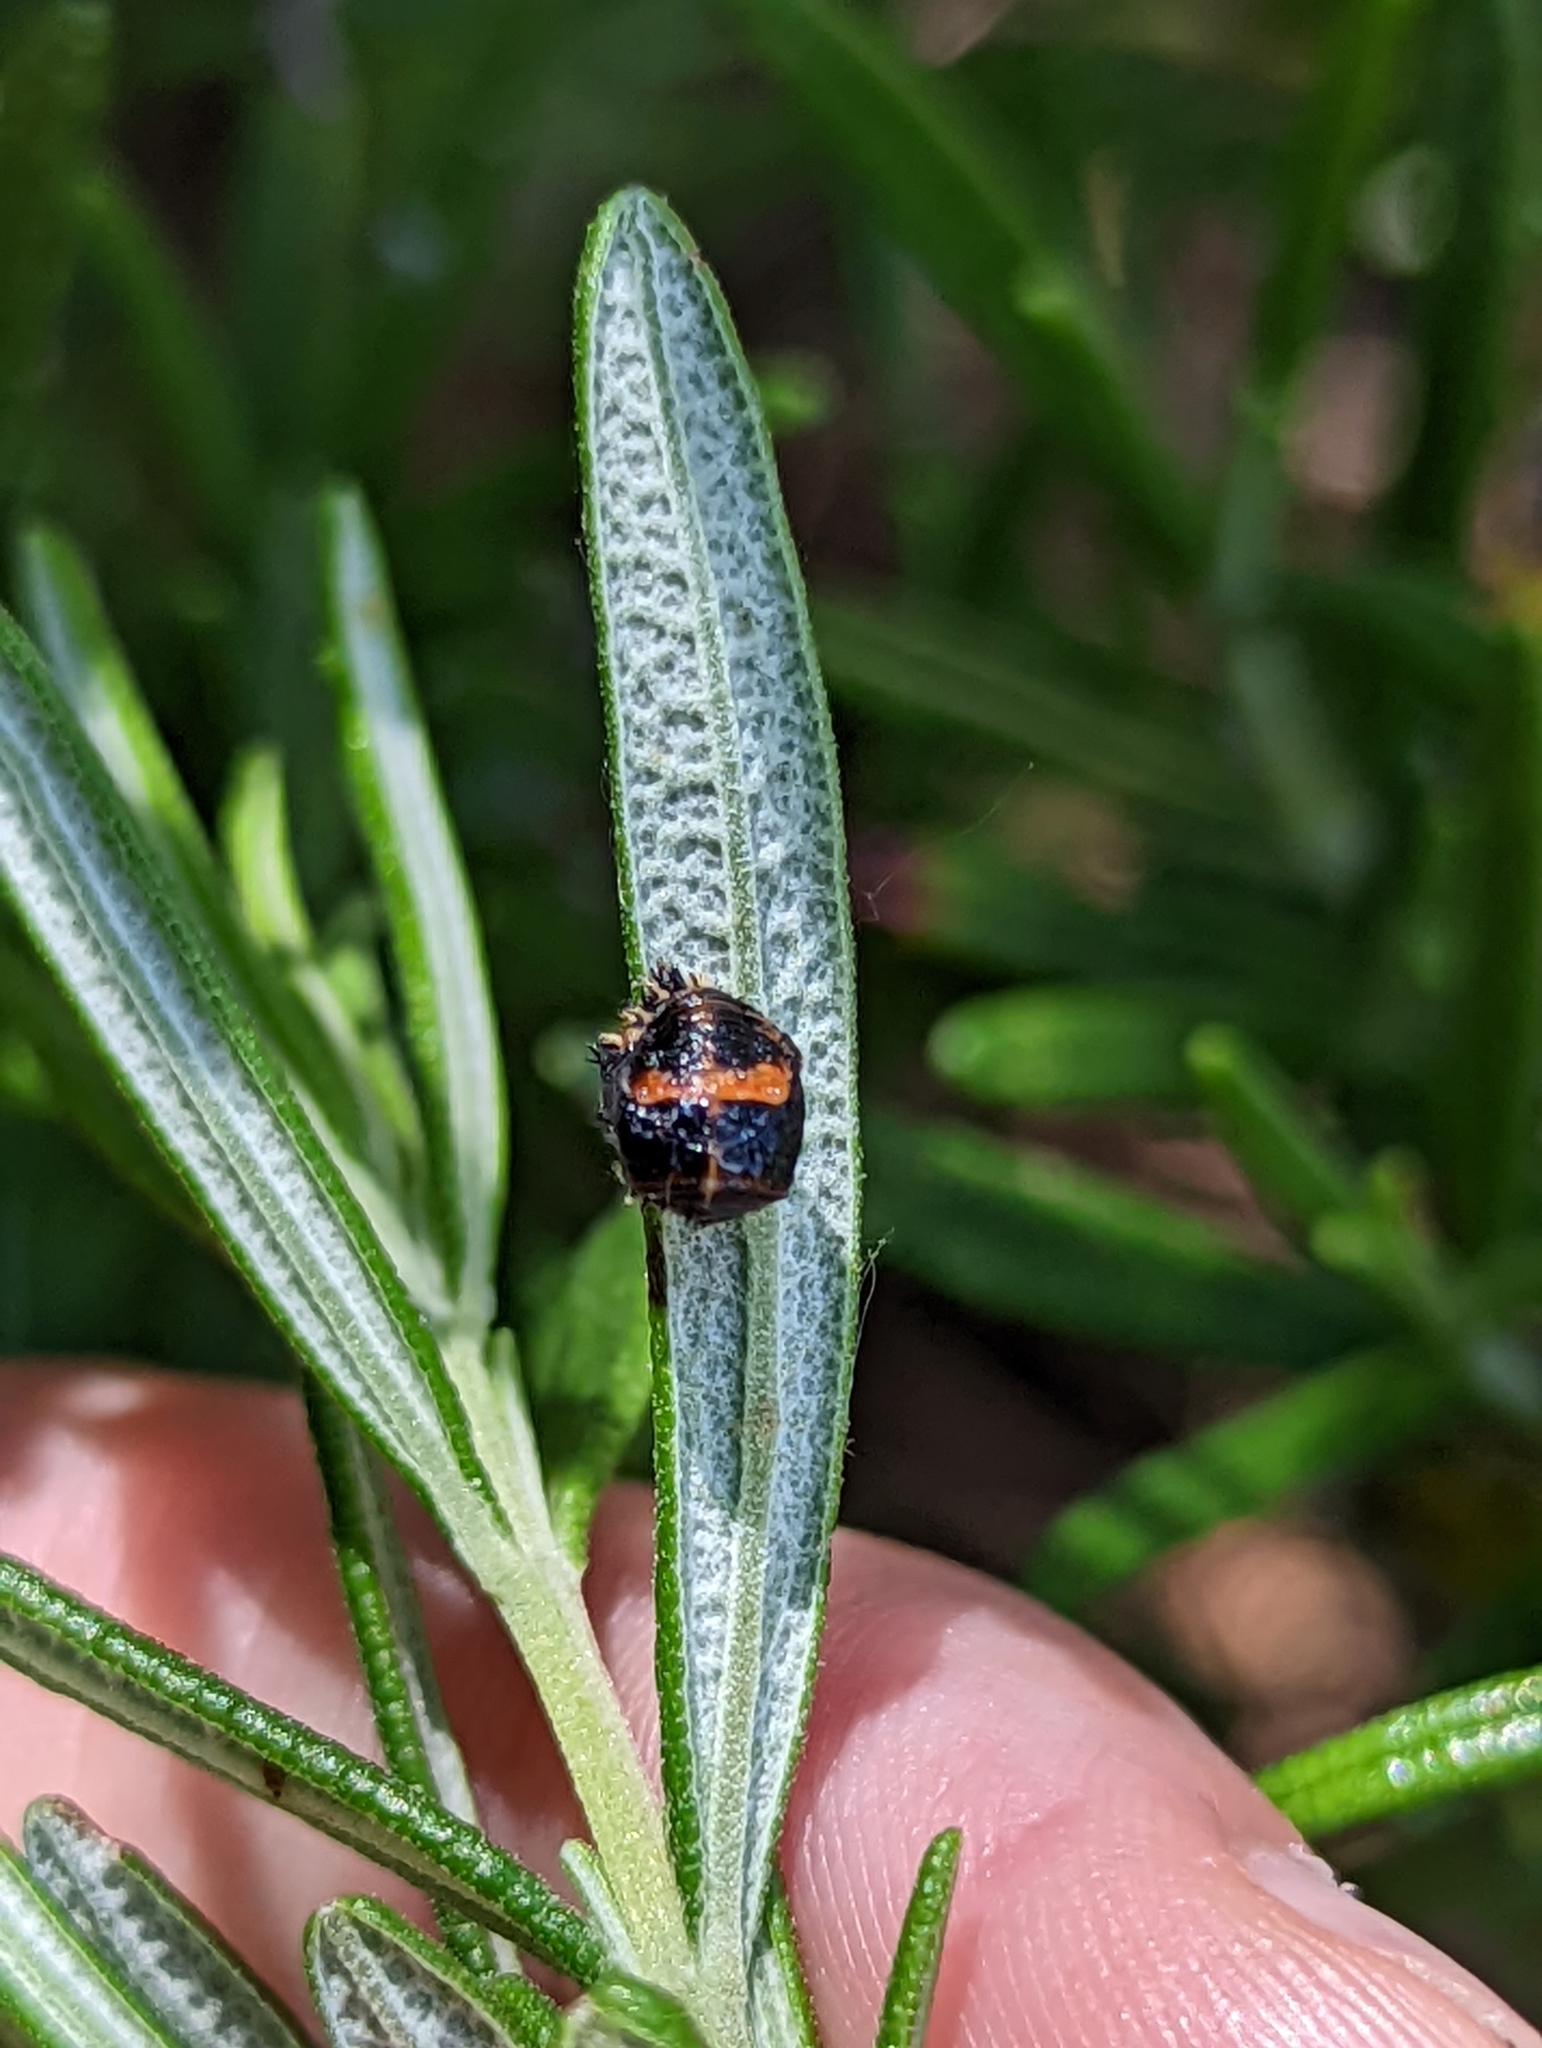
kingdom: Animalia
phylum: Arthropoda
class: Insecta
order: Coleoptera
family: Coccinellidae
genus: Harmonia
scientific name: Harmonia axyridis
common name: Harlequin ladybird
